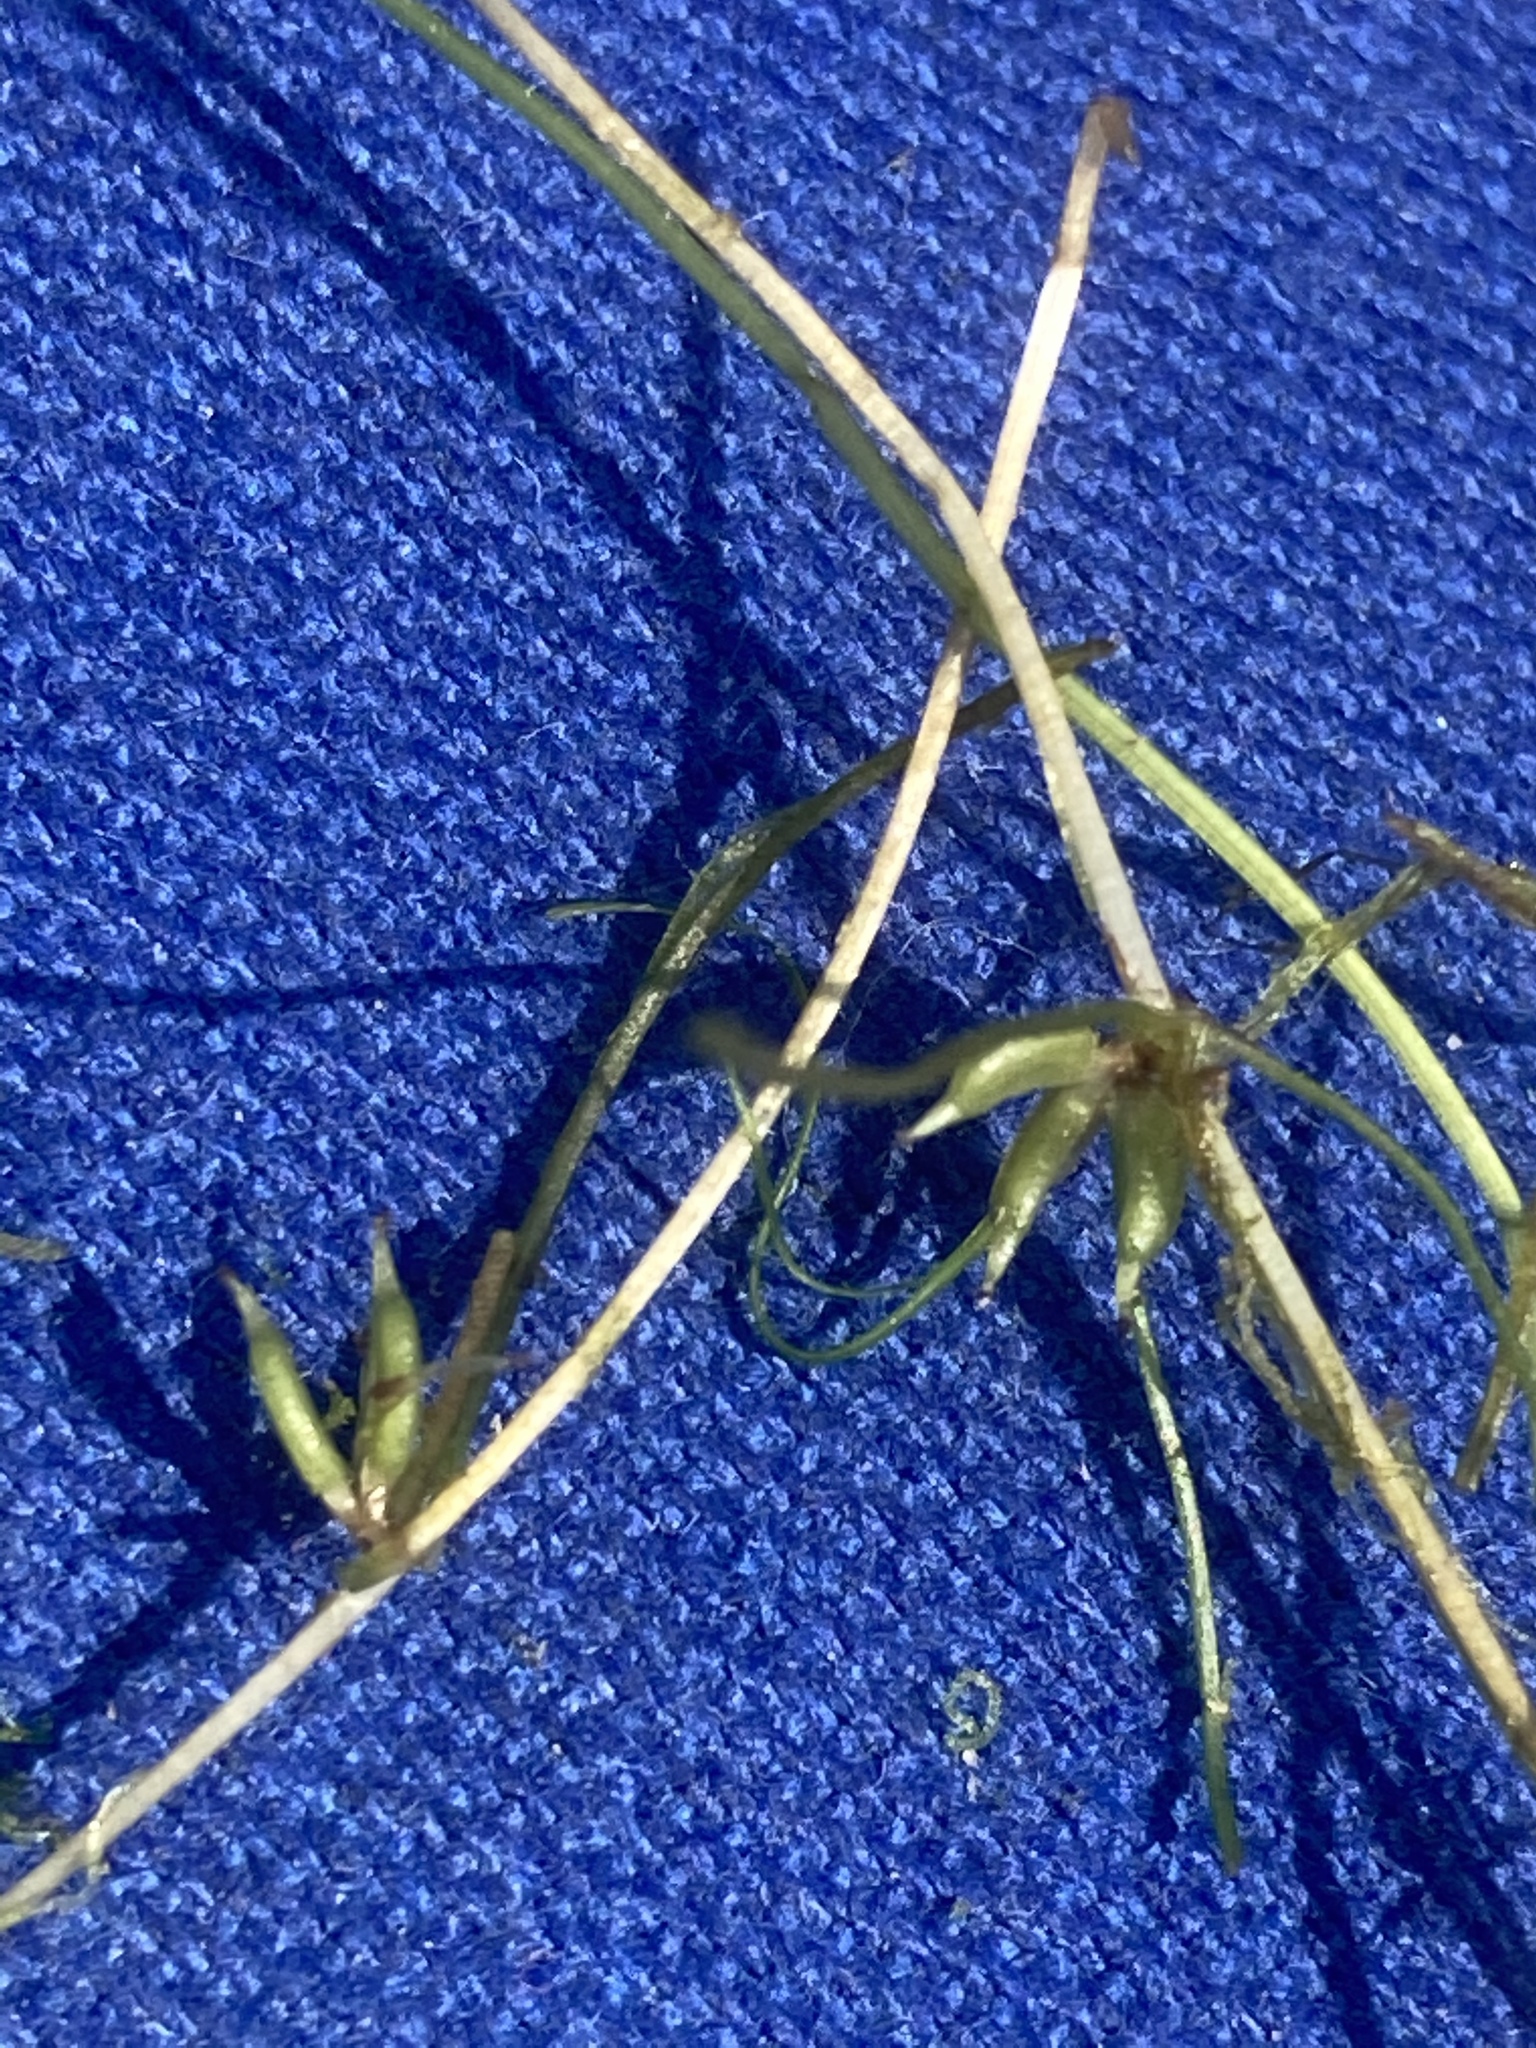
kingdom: Plantae
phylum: Tracheophyta
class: Liliopsida
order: Alismatales
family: Potamogetonaceae
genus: Zannichellia
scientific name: Zannichellia palustris
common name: Horned pondweed
